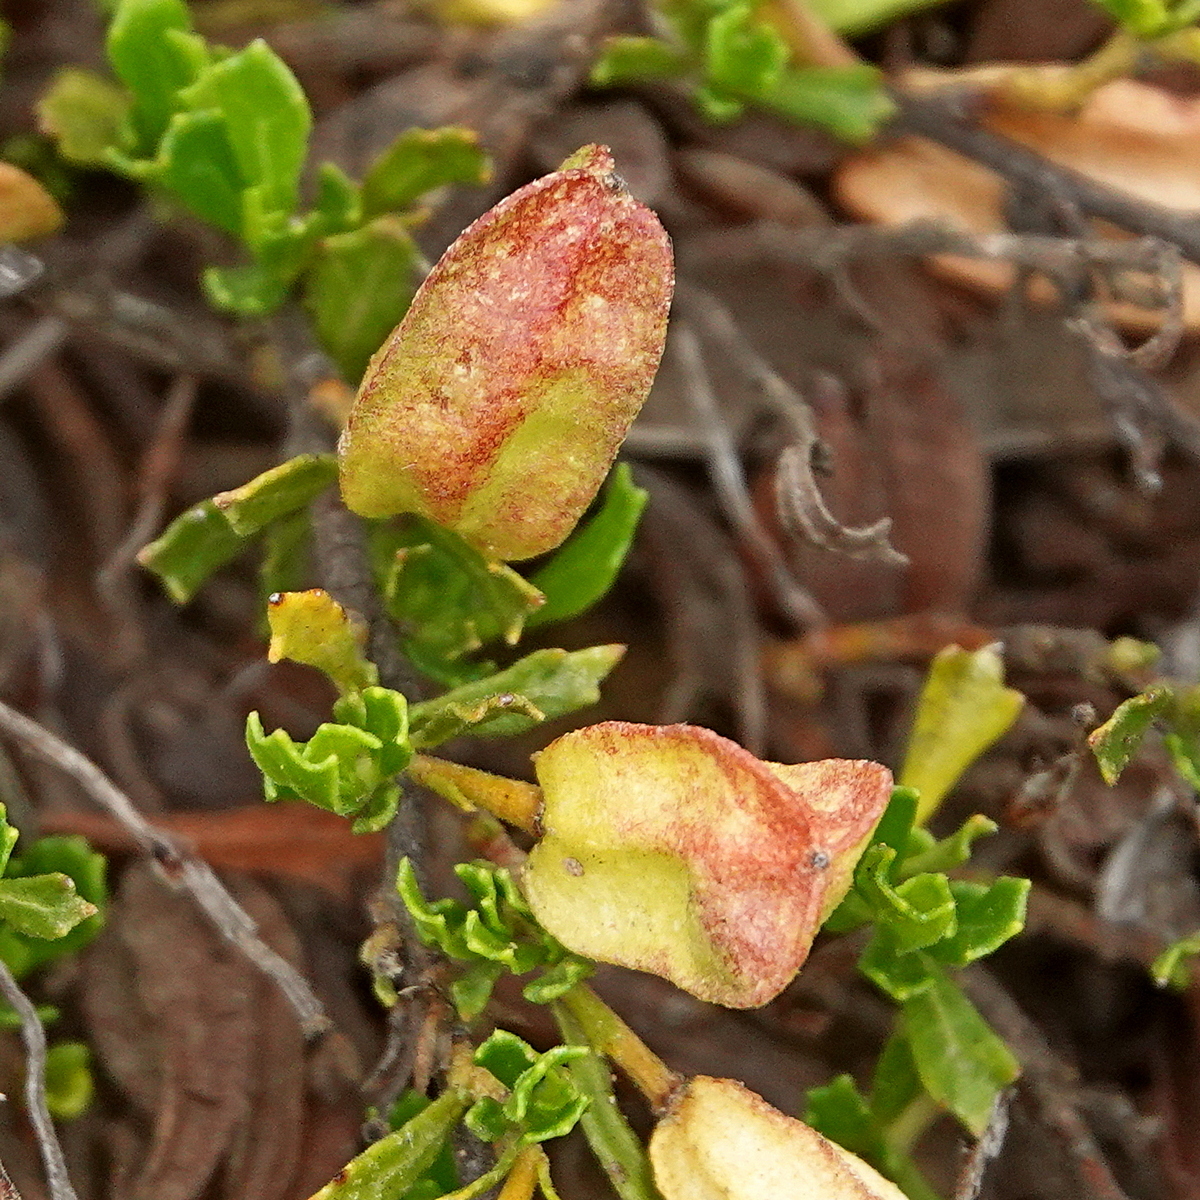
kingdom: Plantae
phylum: Tracheophyta
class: Magnoliopsida
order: Sapindales
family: Sapindaceae
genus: Dodonaea
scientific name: Dodonaea procumbens
